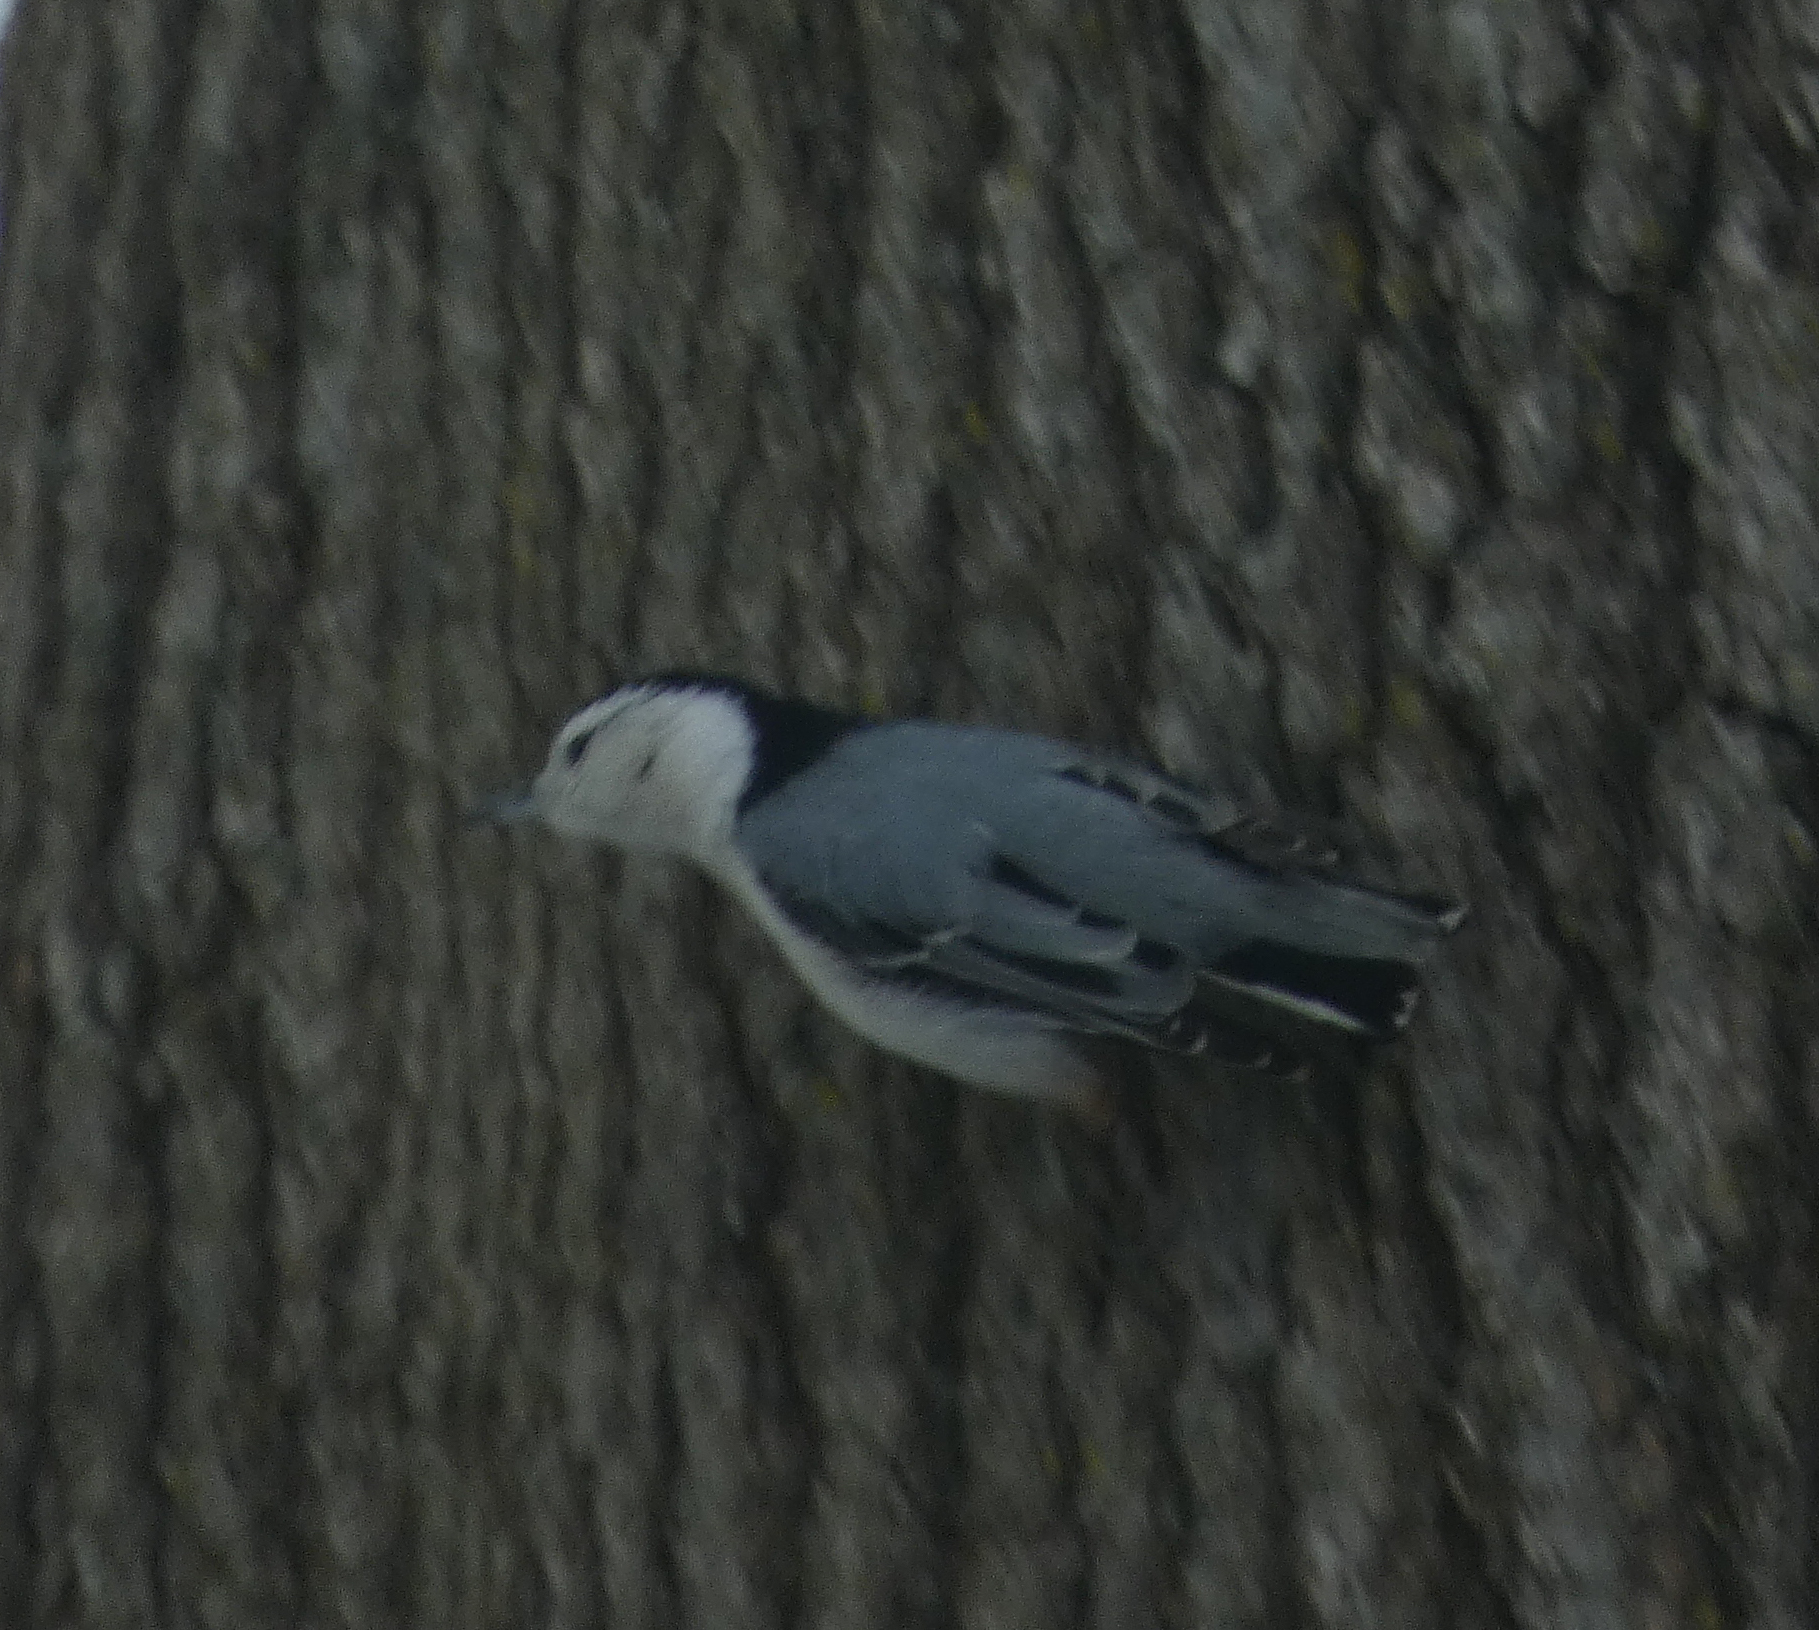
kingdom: Animalia
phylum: Chordata
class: Aves
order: Passeriformes
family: Sittidae
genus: Sitta
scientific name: Sitta carolinensis
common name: White-breasted nuthatch
